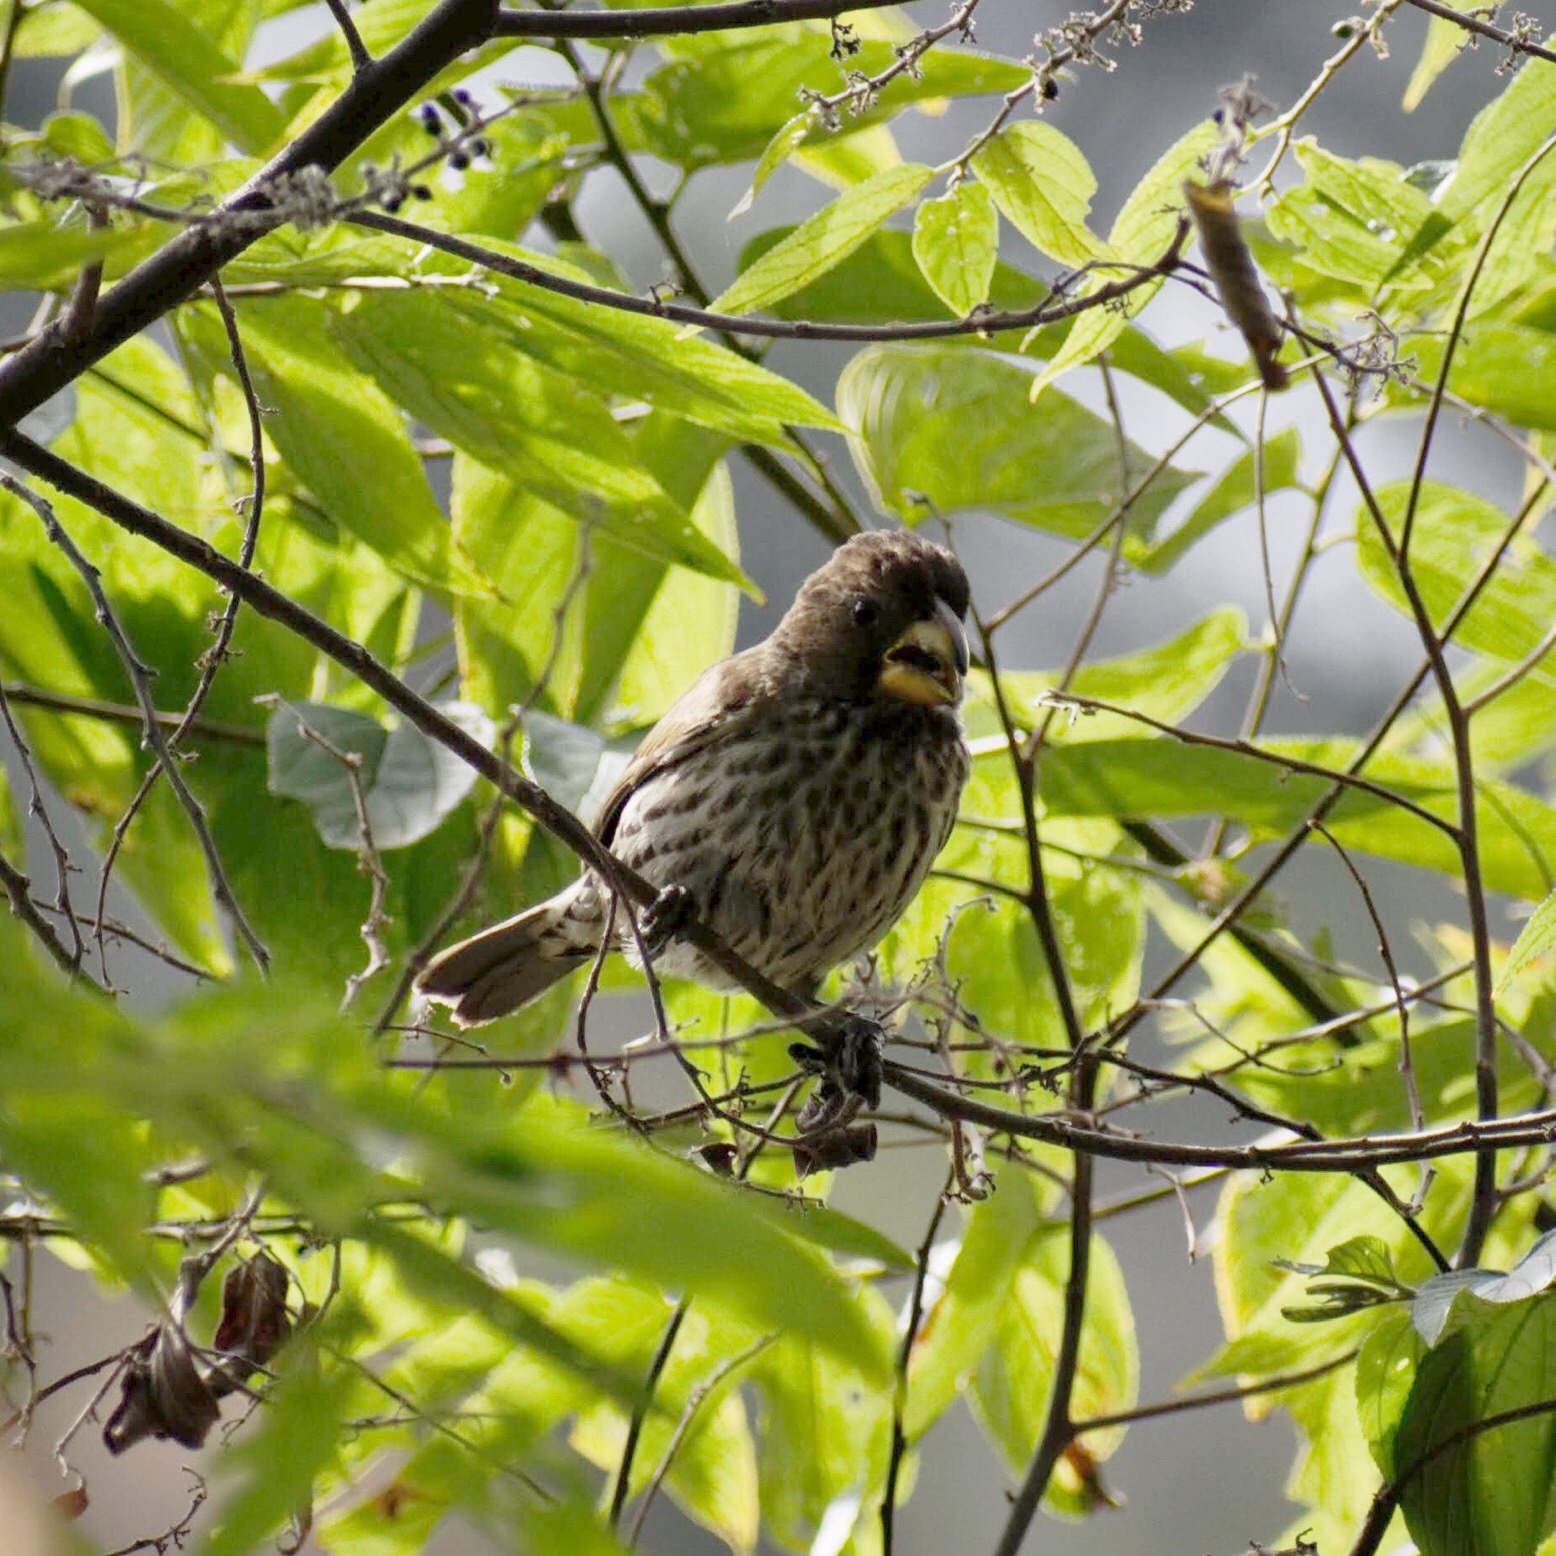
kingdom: Animalia
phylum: Chordata
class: Aves
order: Passeriformes
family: Ploceidae
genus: Amblyospiza
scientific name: Amblyospiza albifrons
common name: Thick-billed weaver
